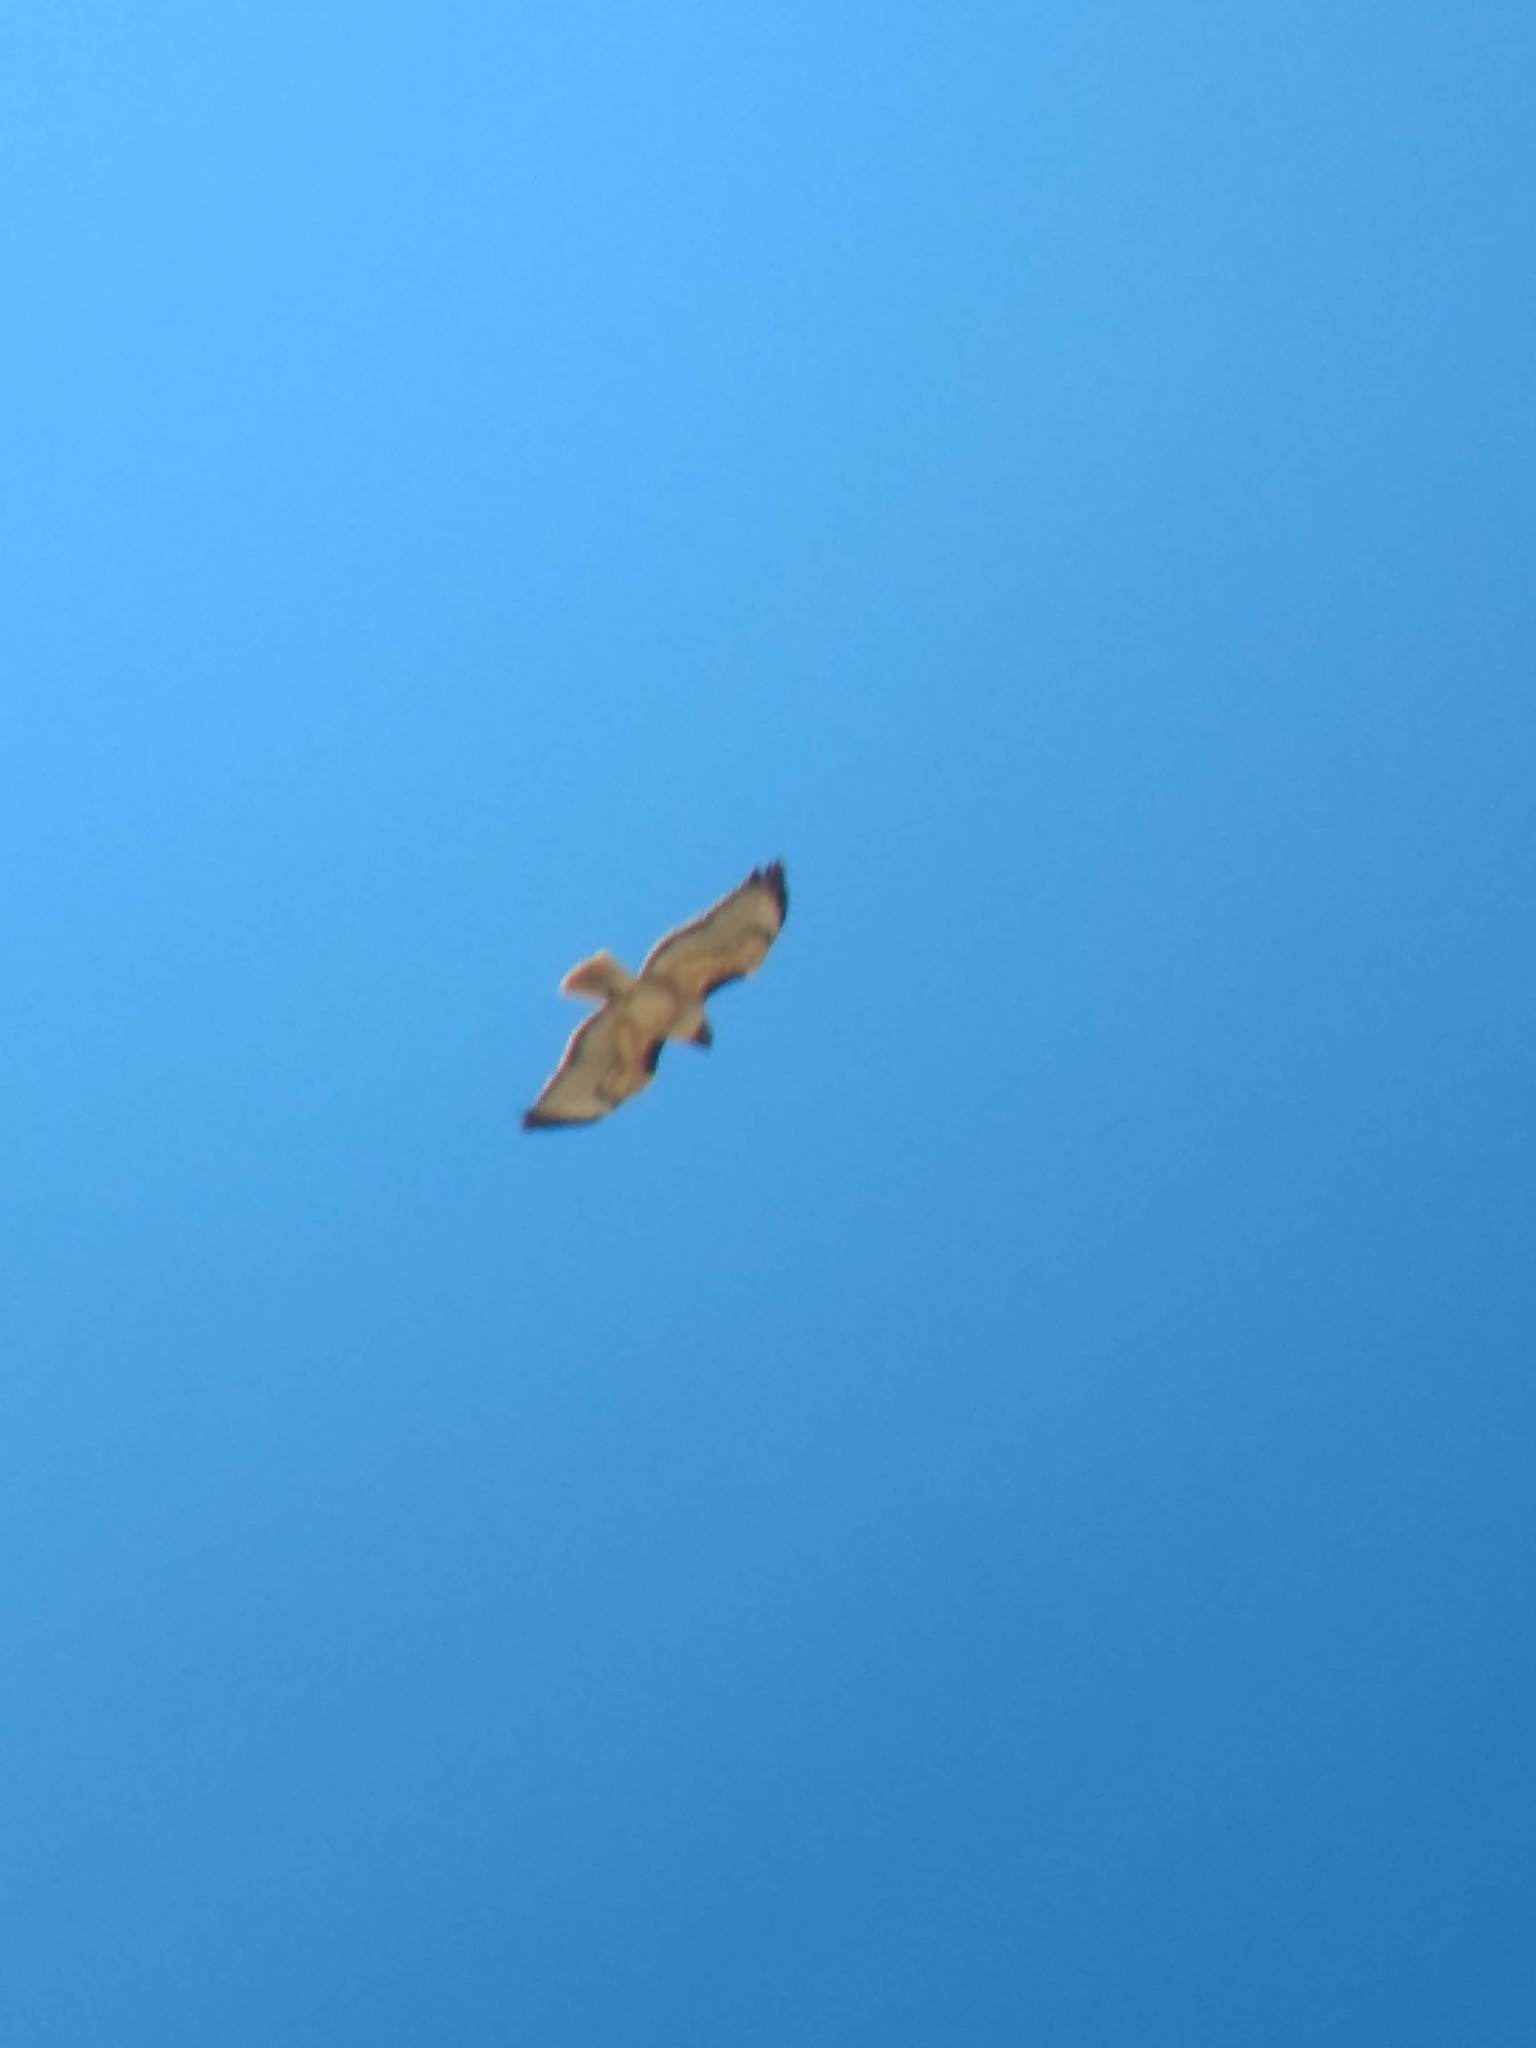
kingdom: Animalia
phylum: Chordata
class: Aves
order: Accipitriformes
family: Accipitridae
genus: Buteo
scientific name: Buteo jamaicensis
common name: Red-tailed hawk
